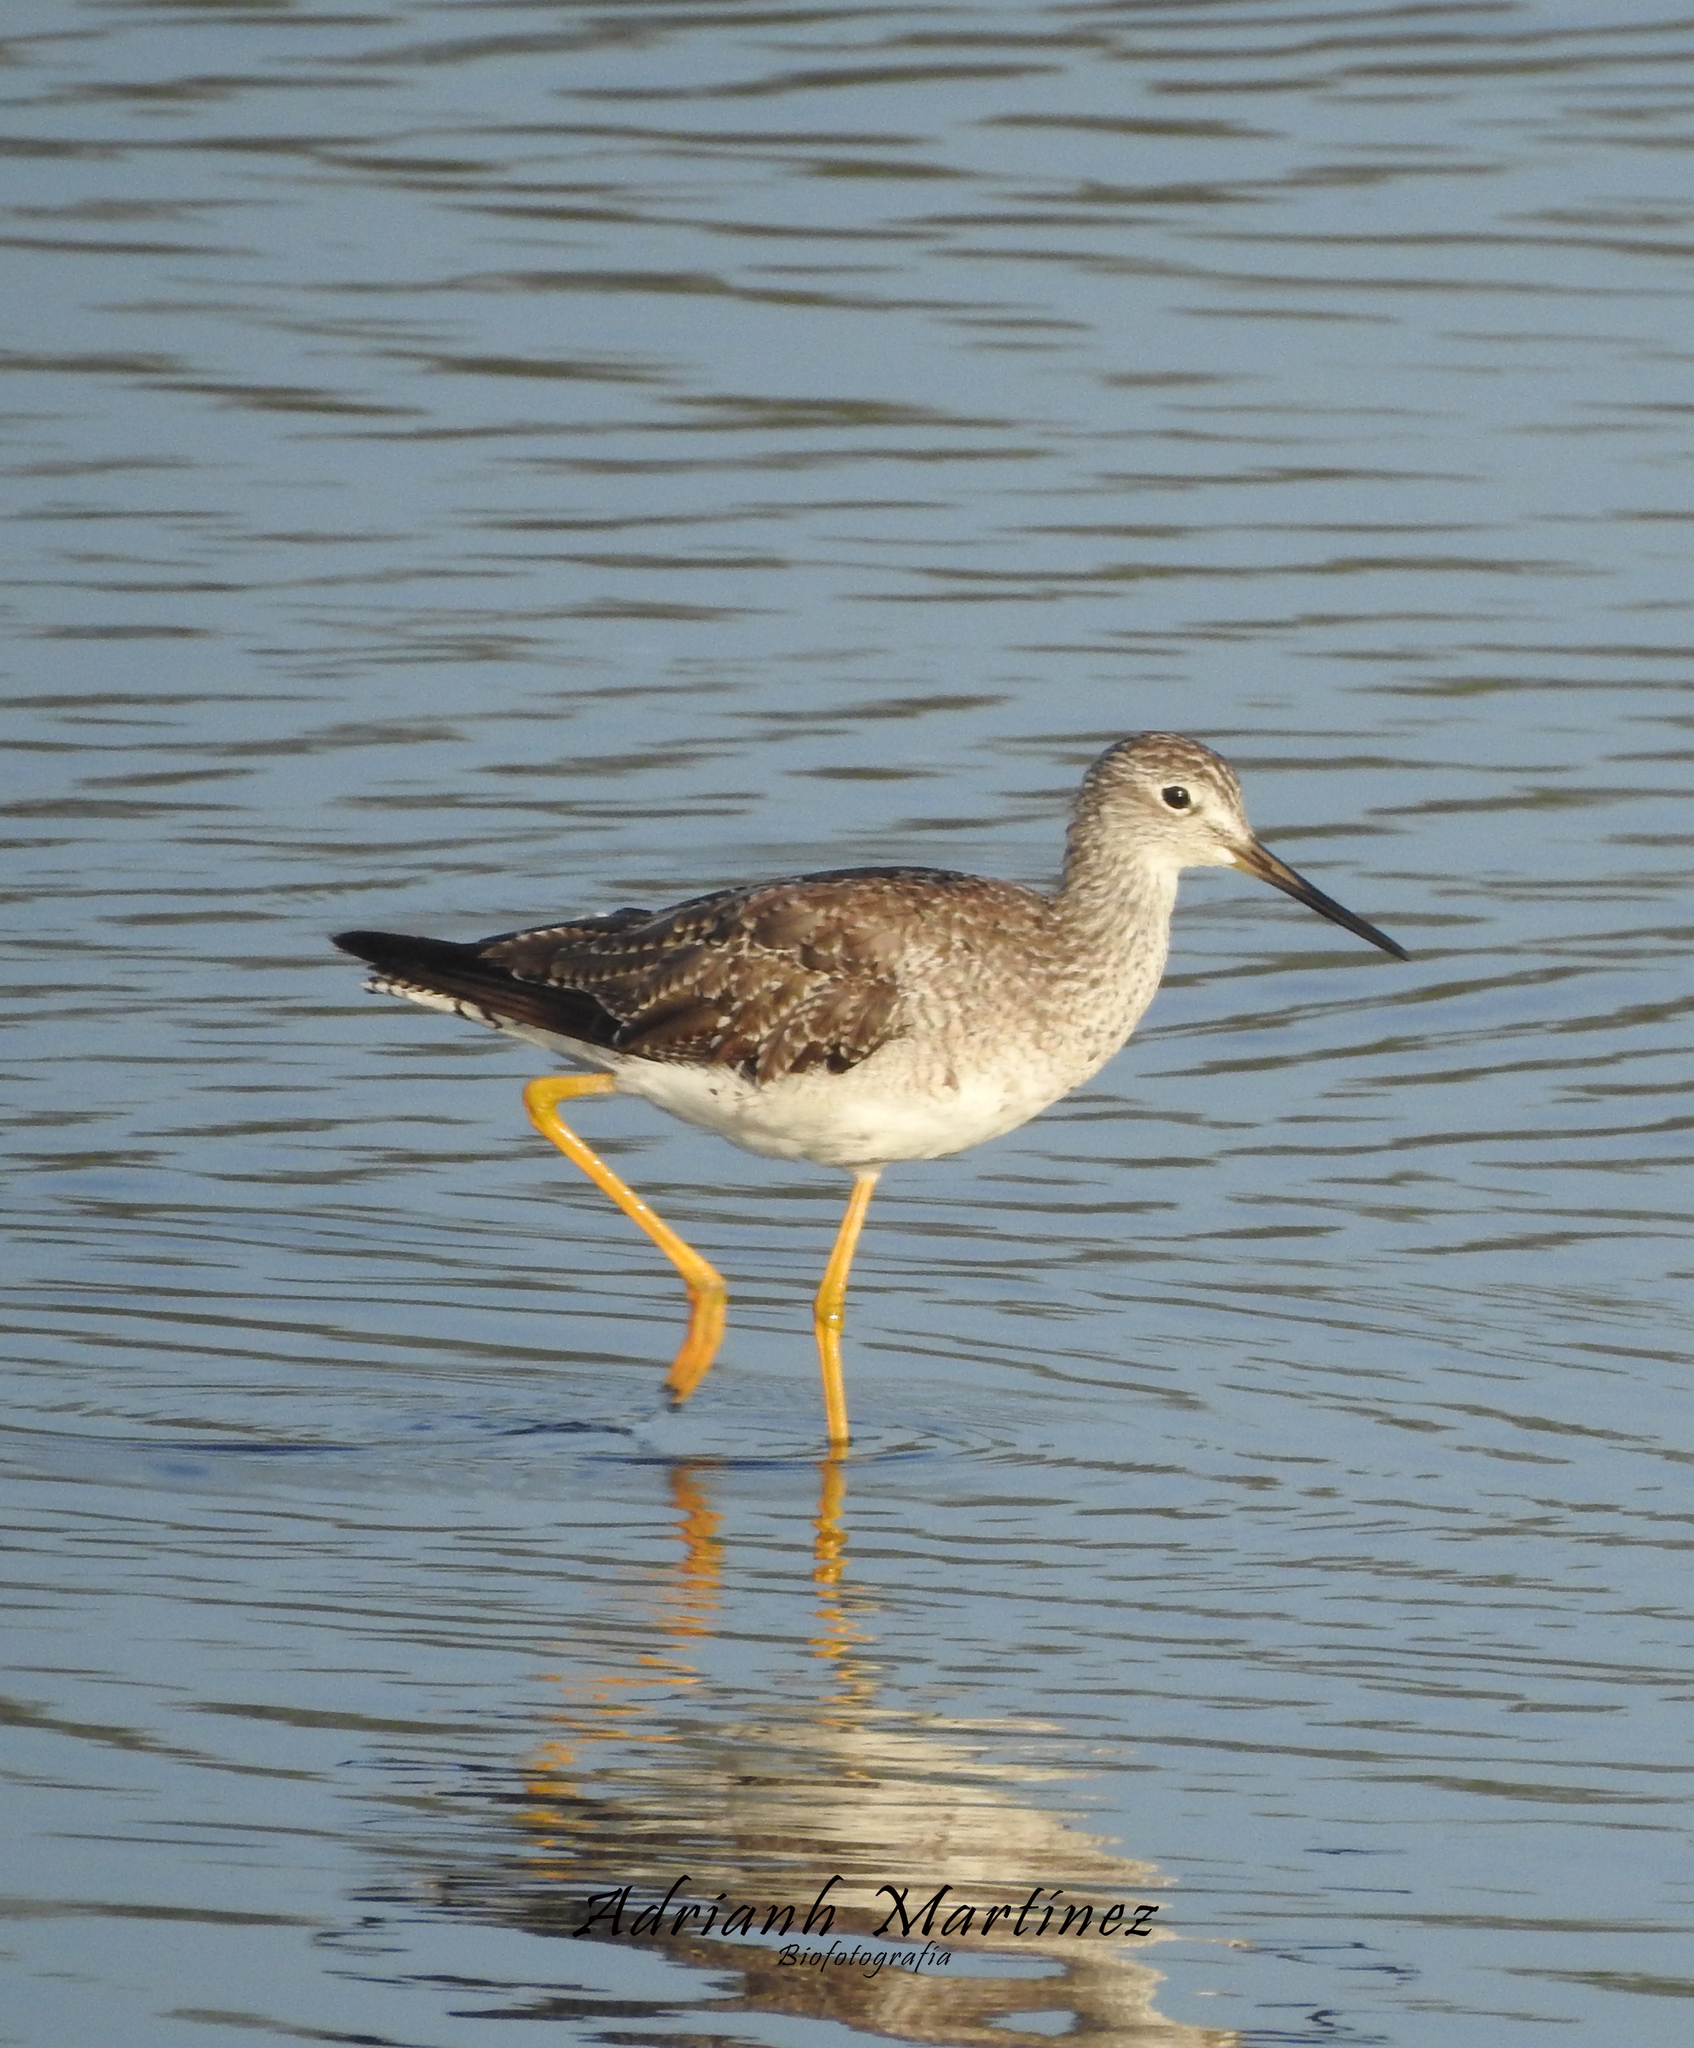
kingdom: Animalia
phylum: Chordata
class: Aves
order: Charadriiformes
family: Scolopacidae
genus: Tringa
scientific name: Tringa melanoleuca
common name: Greater yellowlegs
